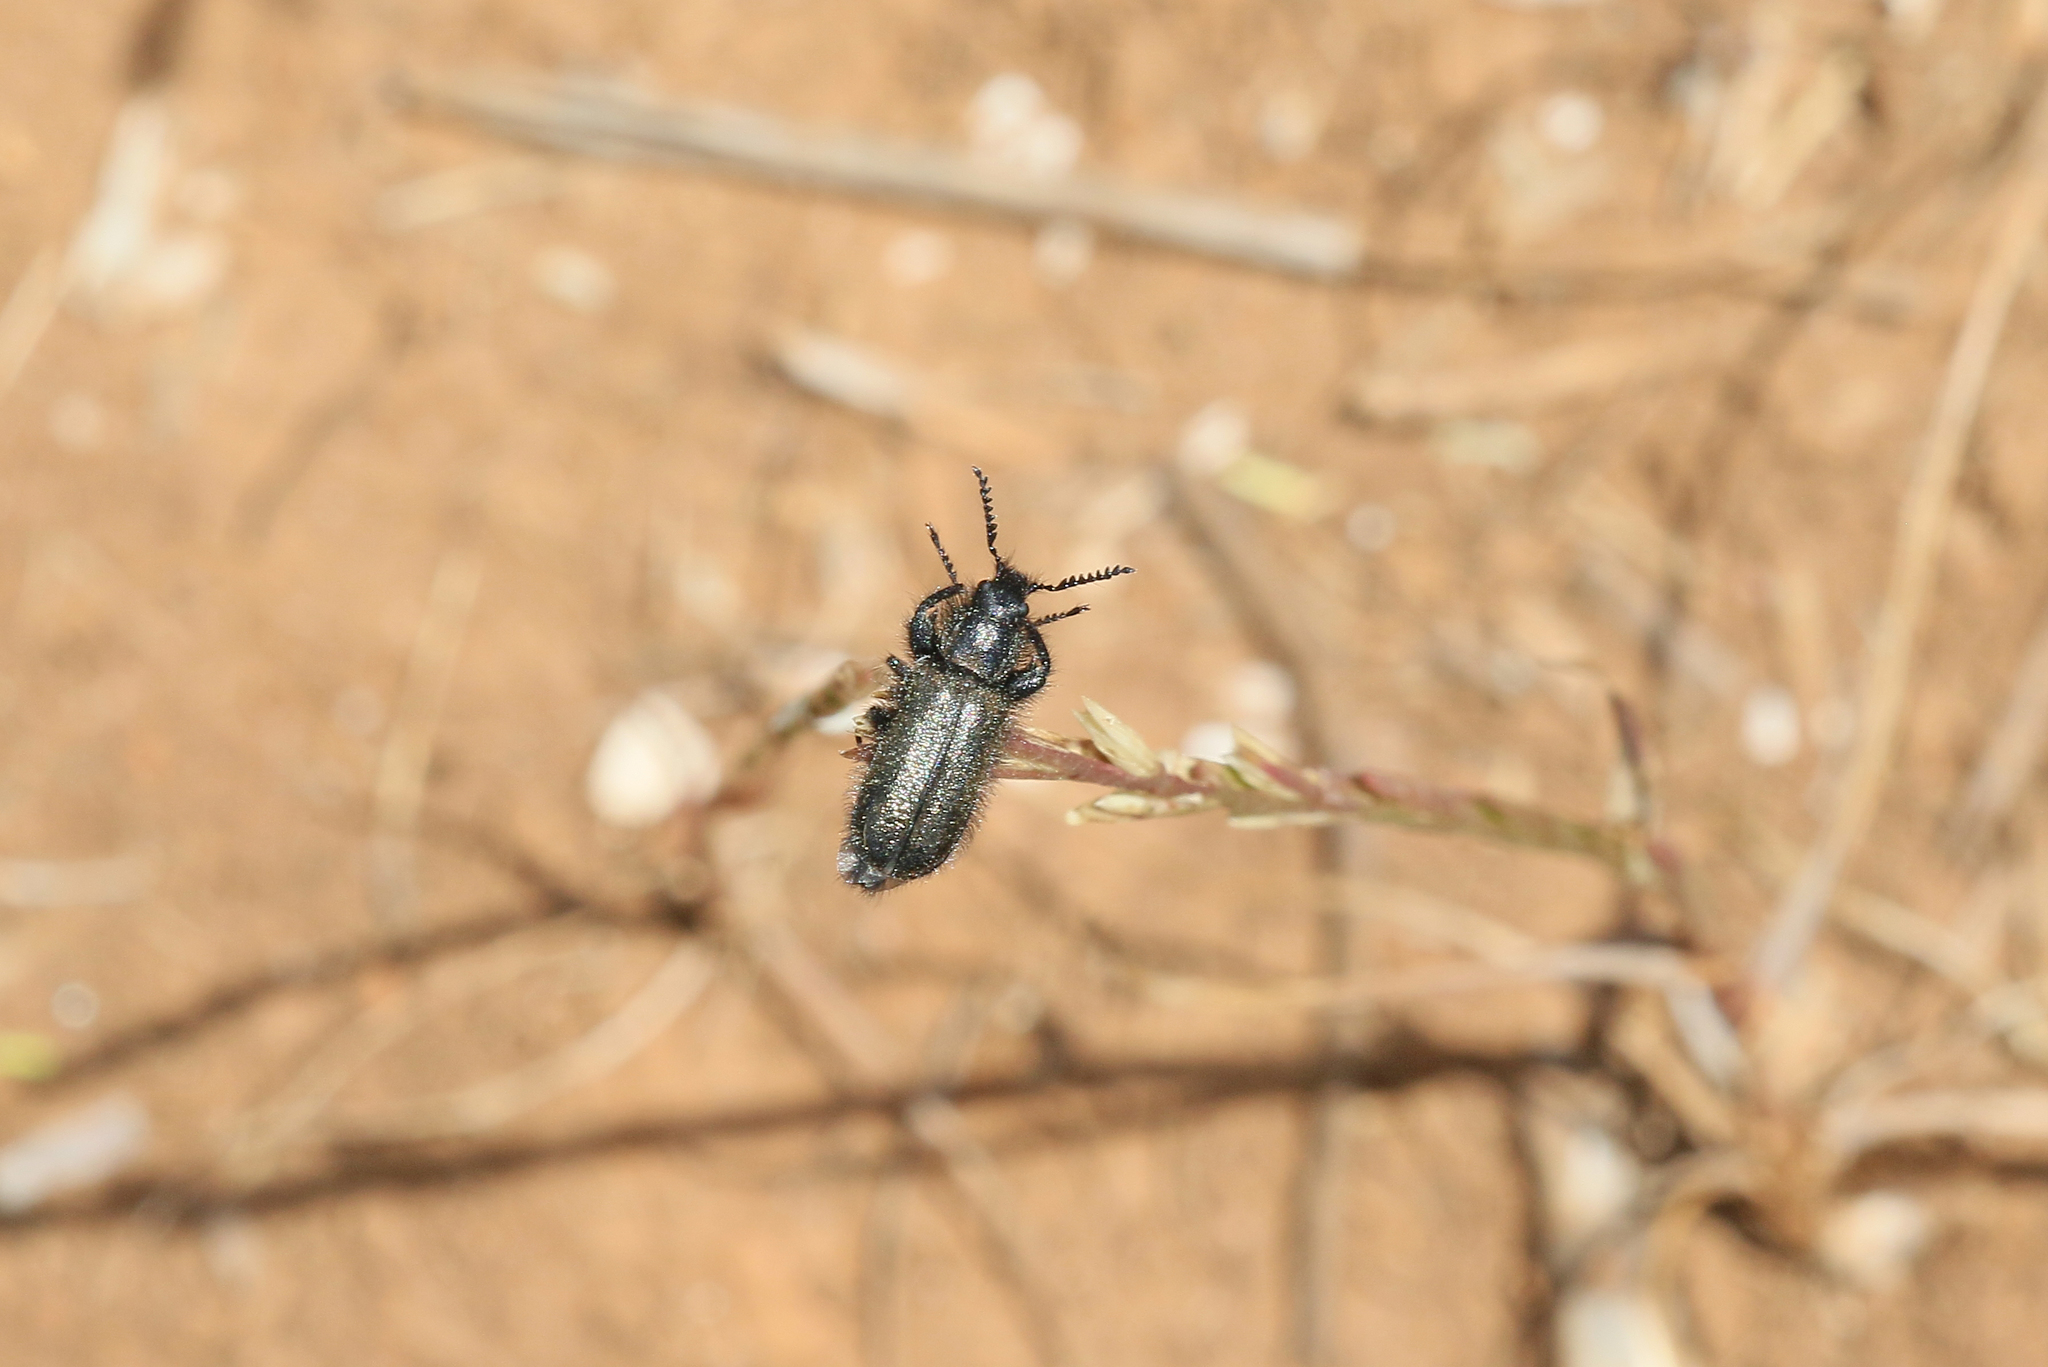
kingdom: Animalia
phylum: Arthropoda
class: Insecta
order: Coleoptera
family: Dasytidae
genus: Trochantodon
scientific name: Trochantodon tibiellus
